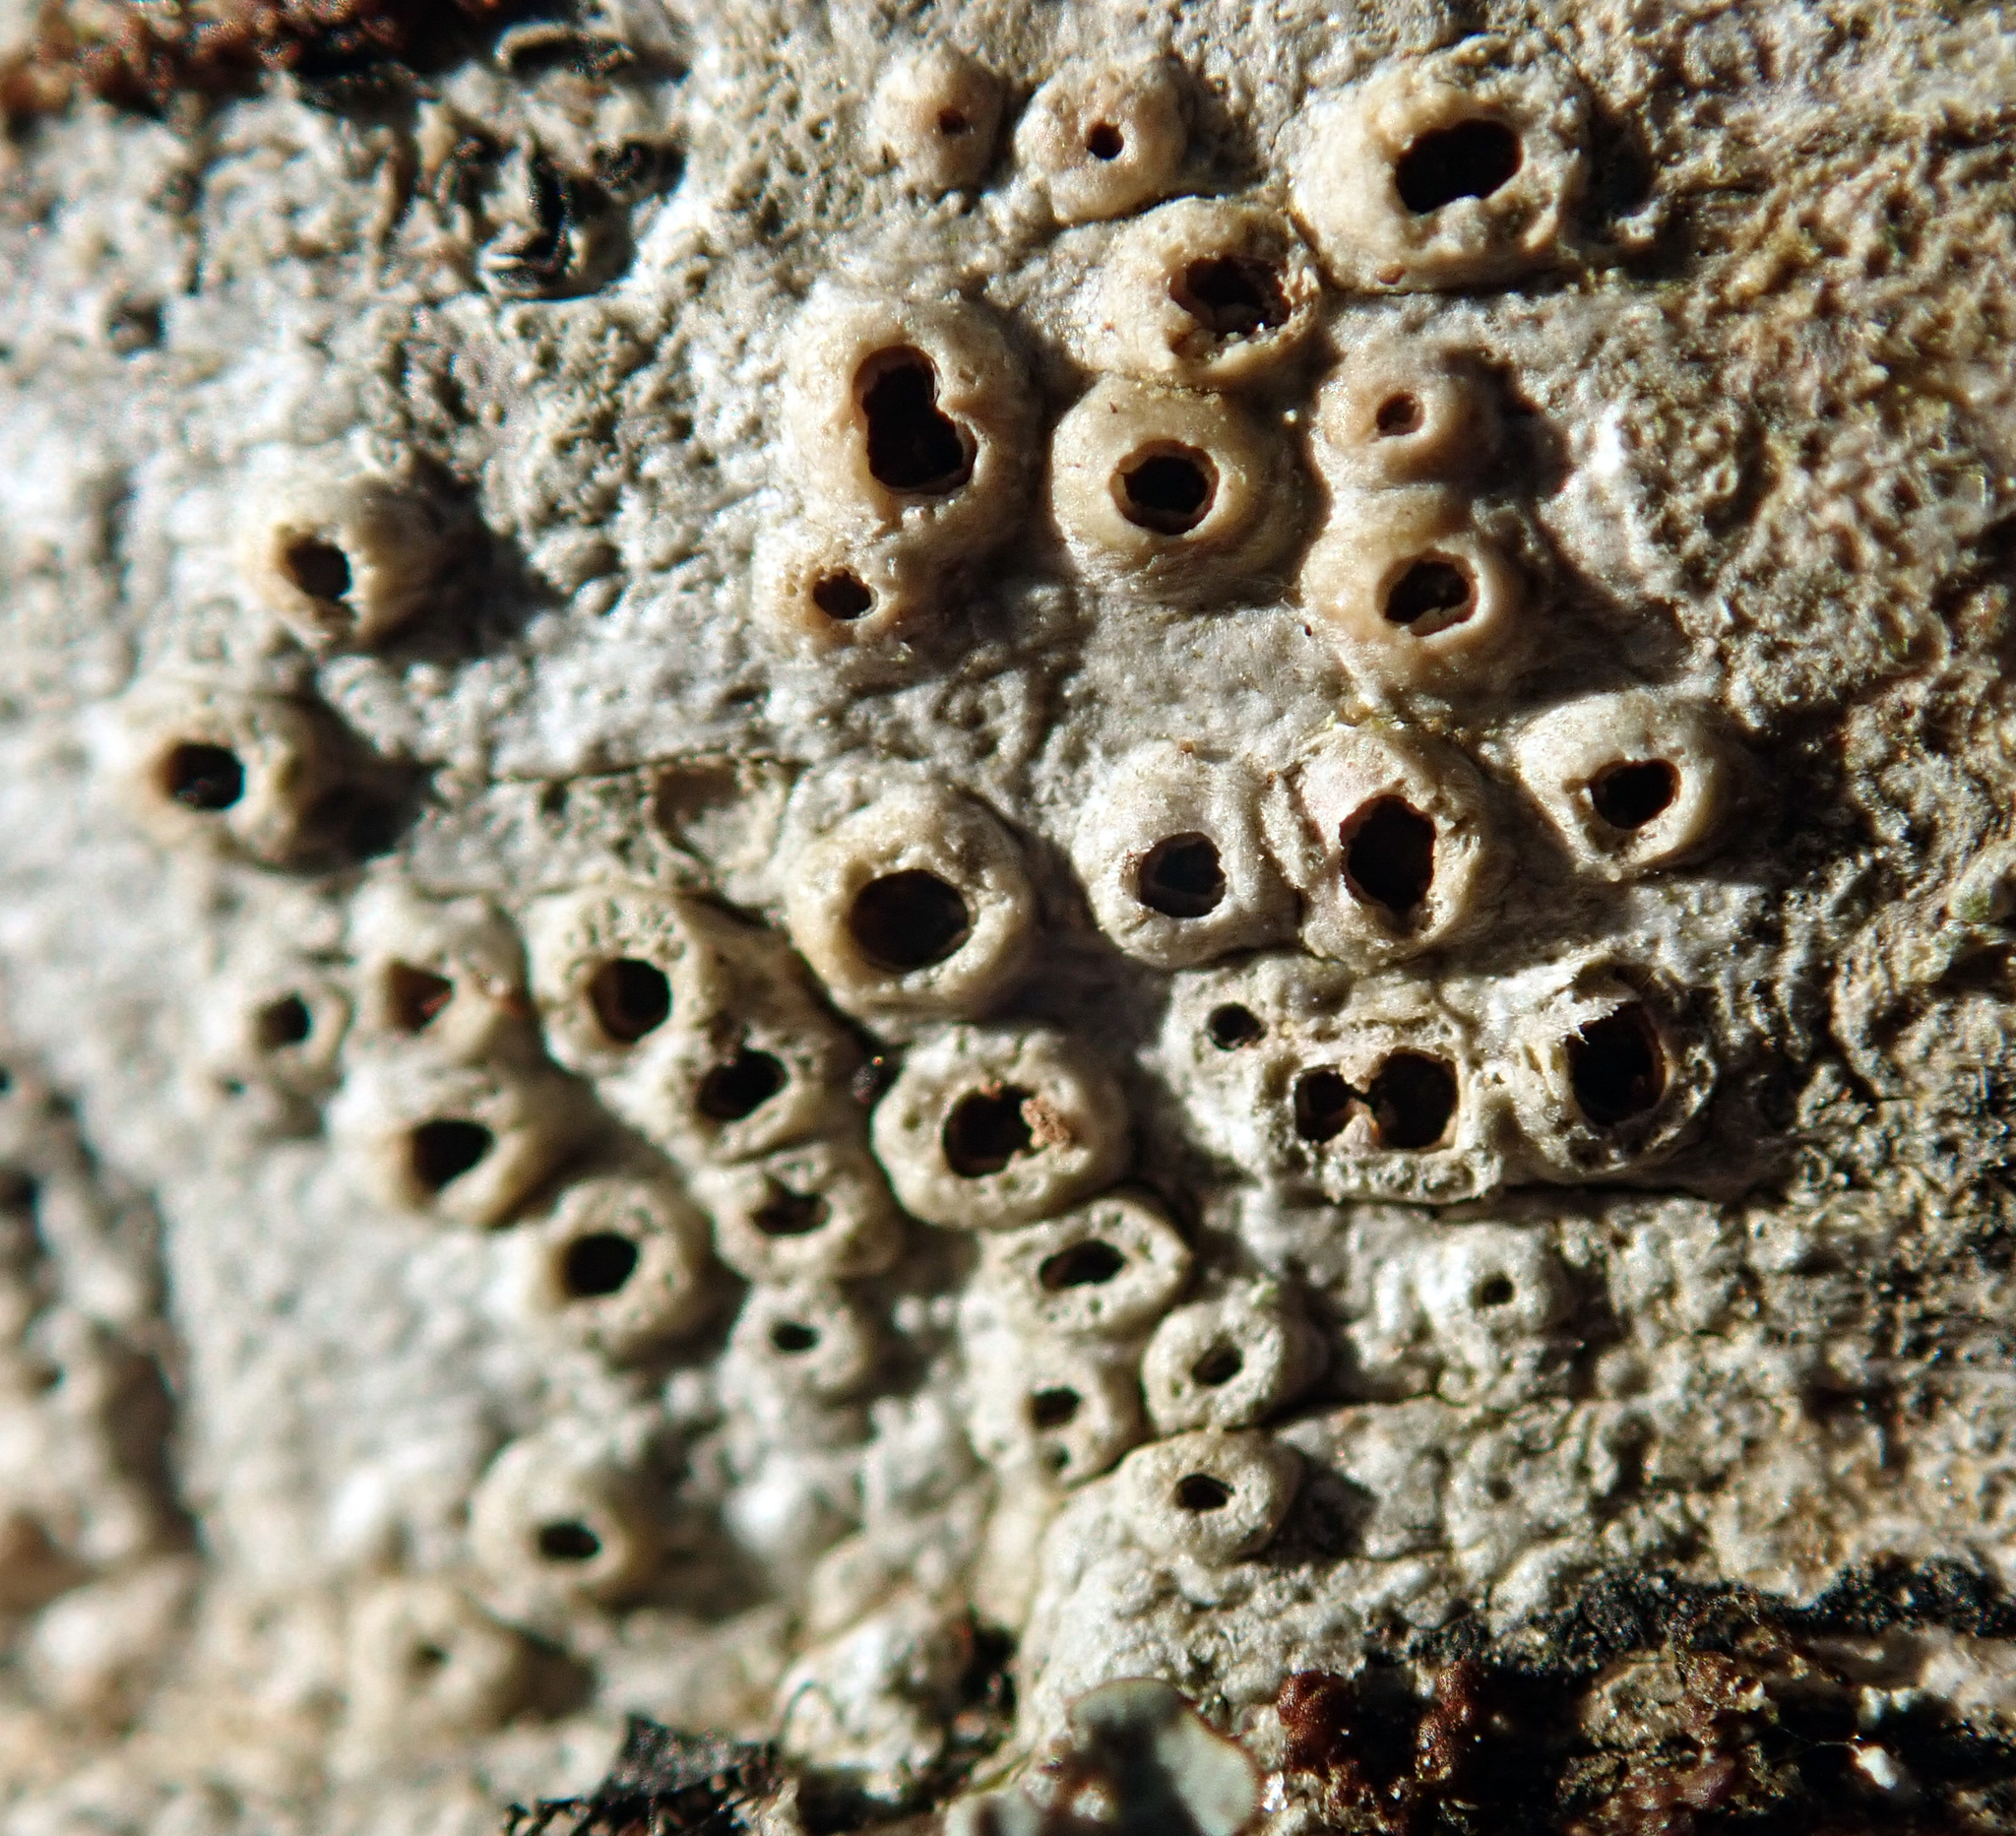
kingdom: Fungi
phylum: Ascomycota
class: Lecanoromycetes
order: Ostropales
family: Graphidaceae
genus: Thelotrema
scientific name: Thelotrema lepadinum
